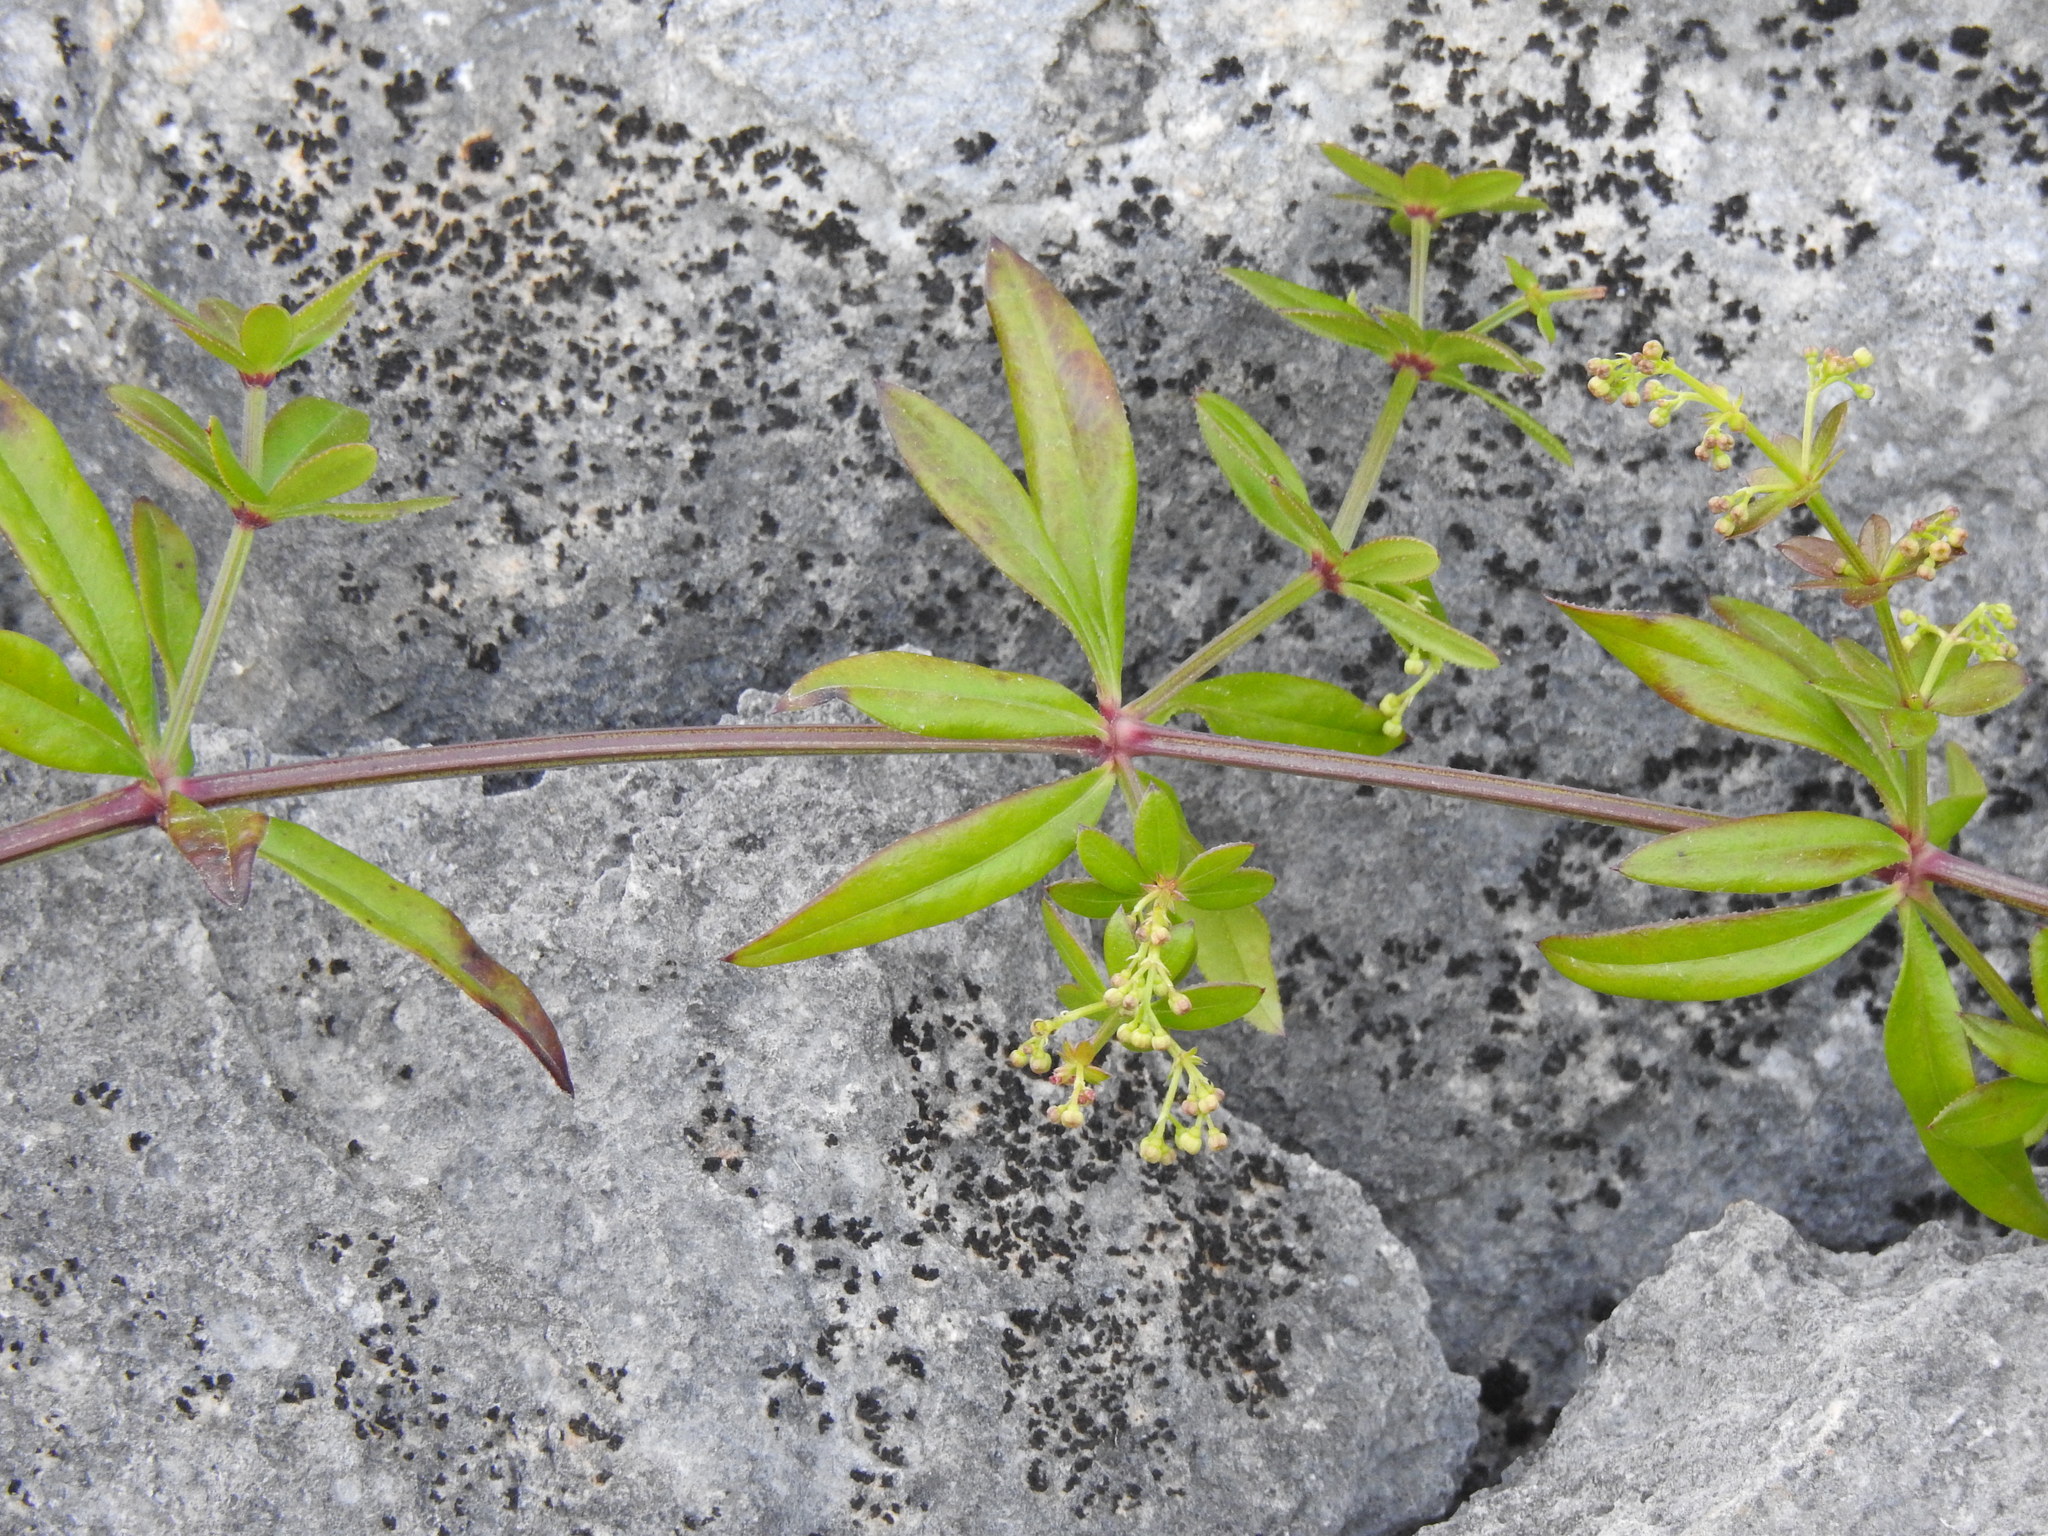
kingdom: Plantae
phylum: Tracheophyta
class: Magnoliopsida
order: Gentianales
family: Rubiaceae
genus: Rubia
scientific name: Rubia peregrina
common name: Wild madder
